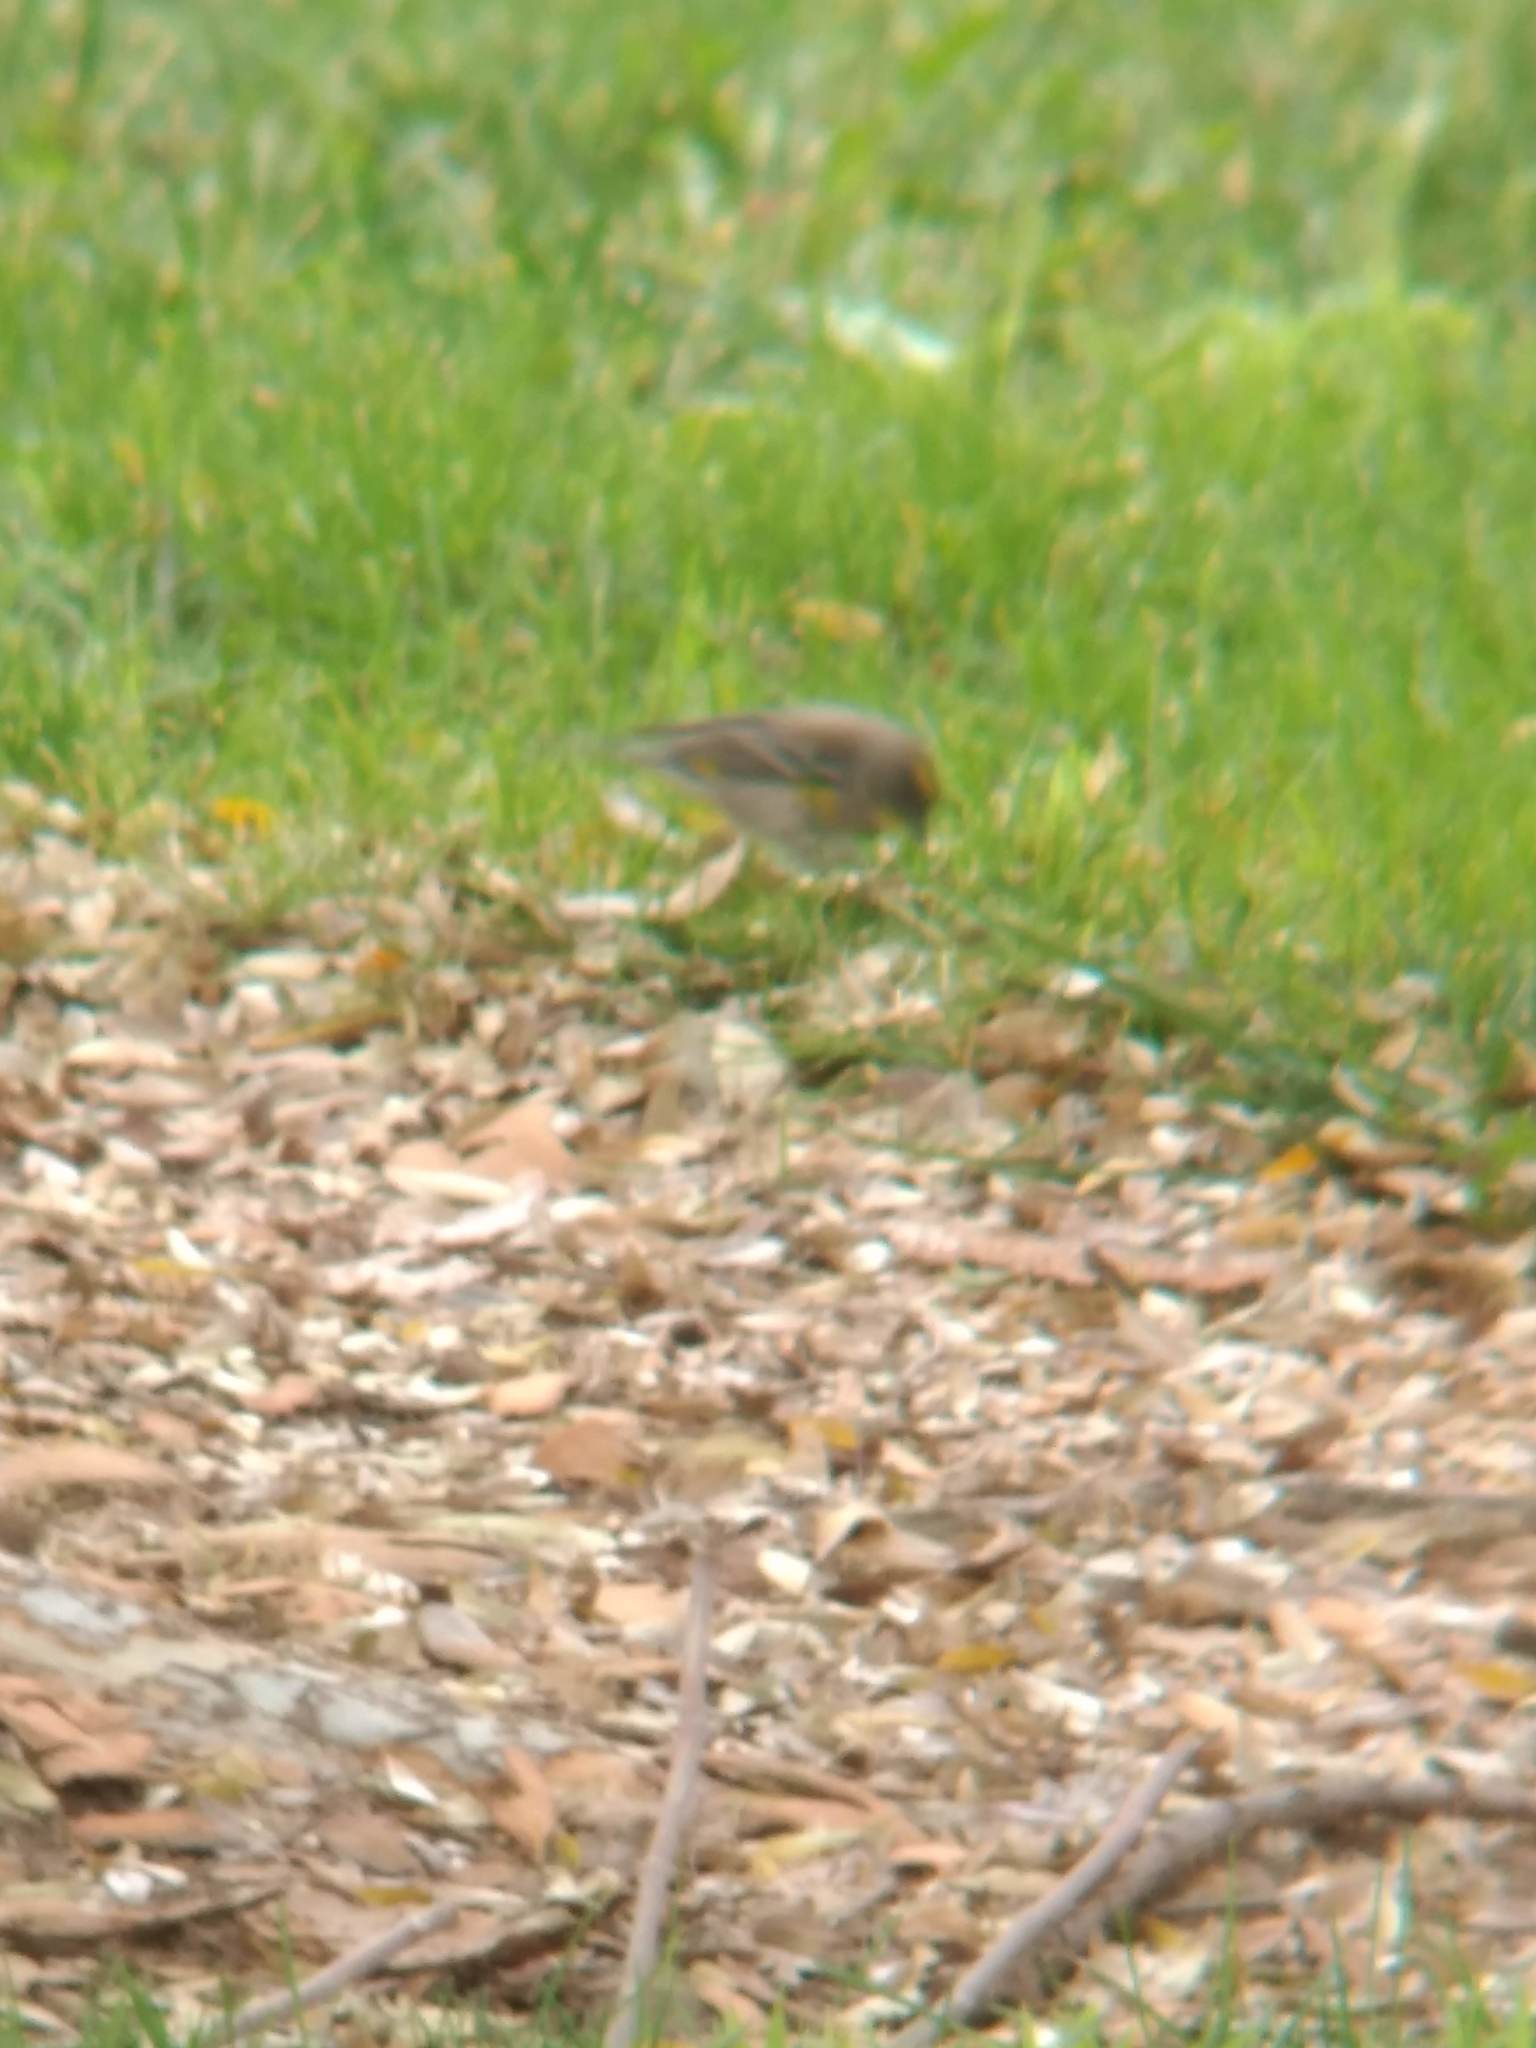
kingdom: Animalia
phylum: Chordata
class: Aves
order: Passeriformes
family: Parulidae
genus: Setophaga
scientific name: Setophaga coronata
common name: Myrtle warbler
